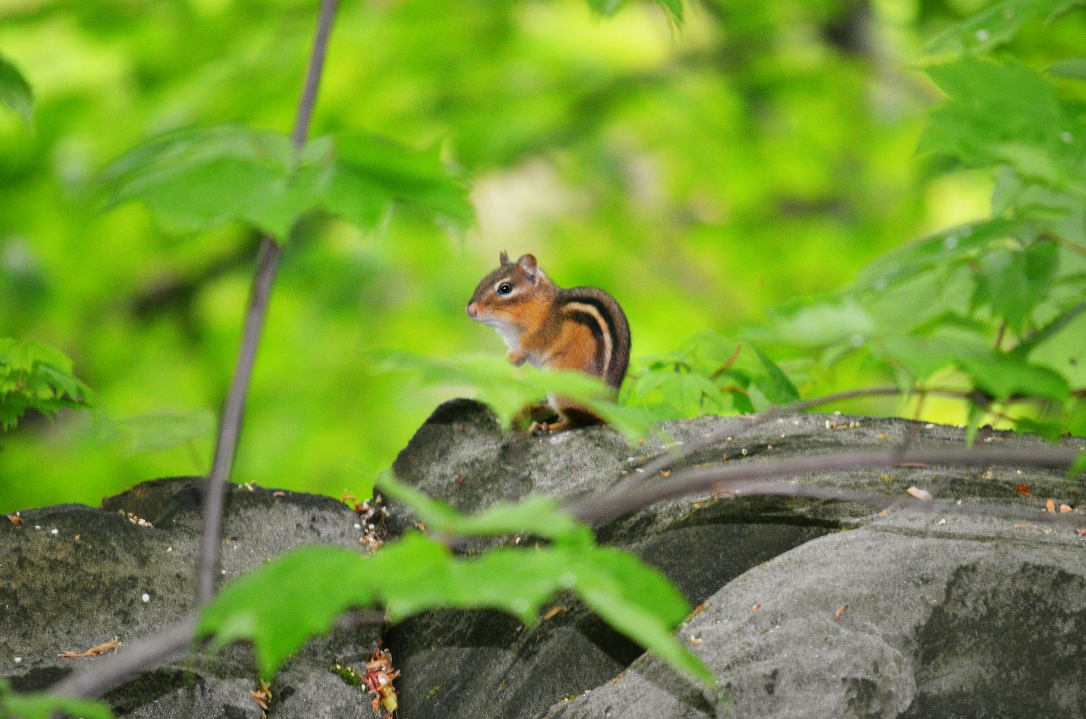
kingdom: Animalia
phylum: Chordata
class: Mammalia
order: Rodentia
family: Sciuridae
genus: Tamias
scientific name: Tamias striatus
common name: Eastern chipmunk
